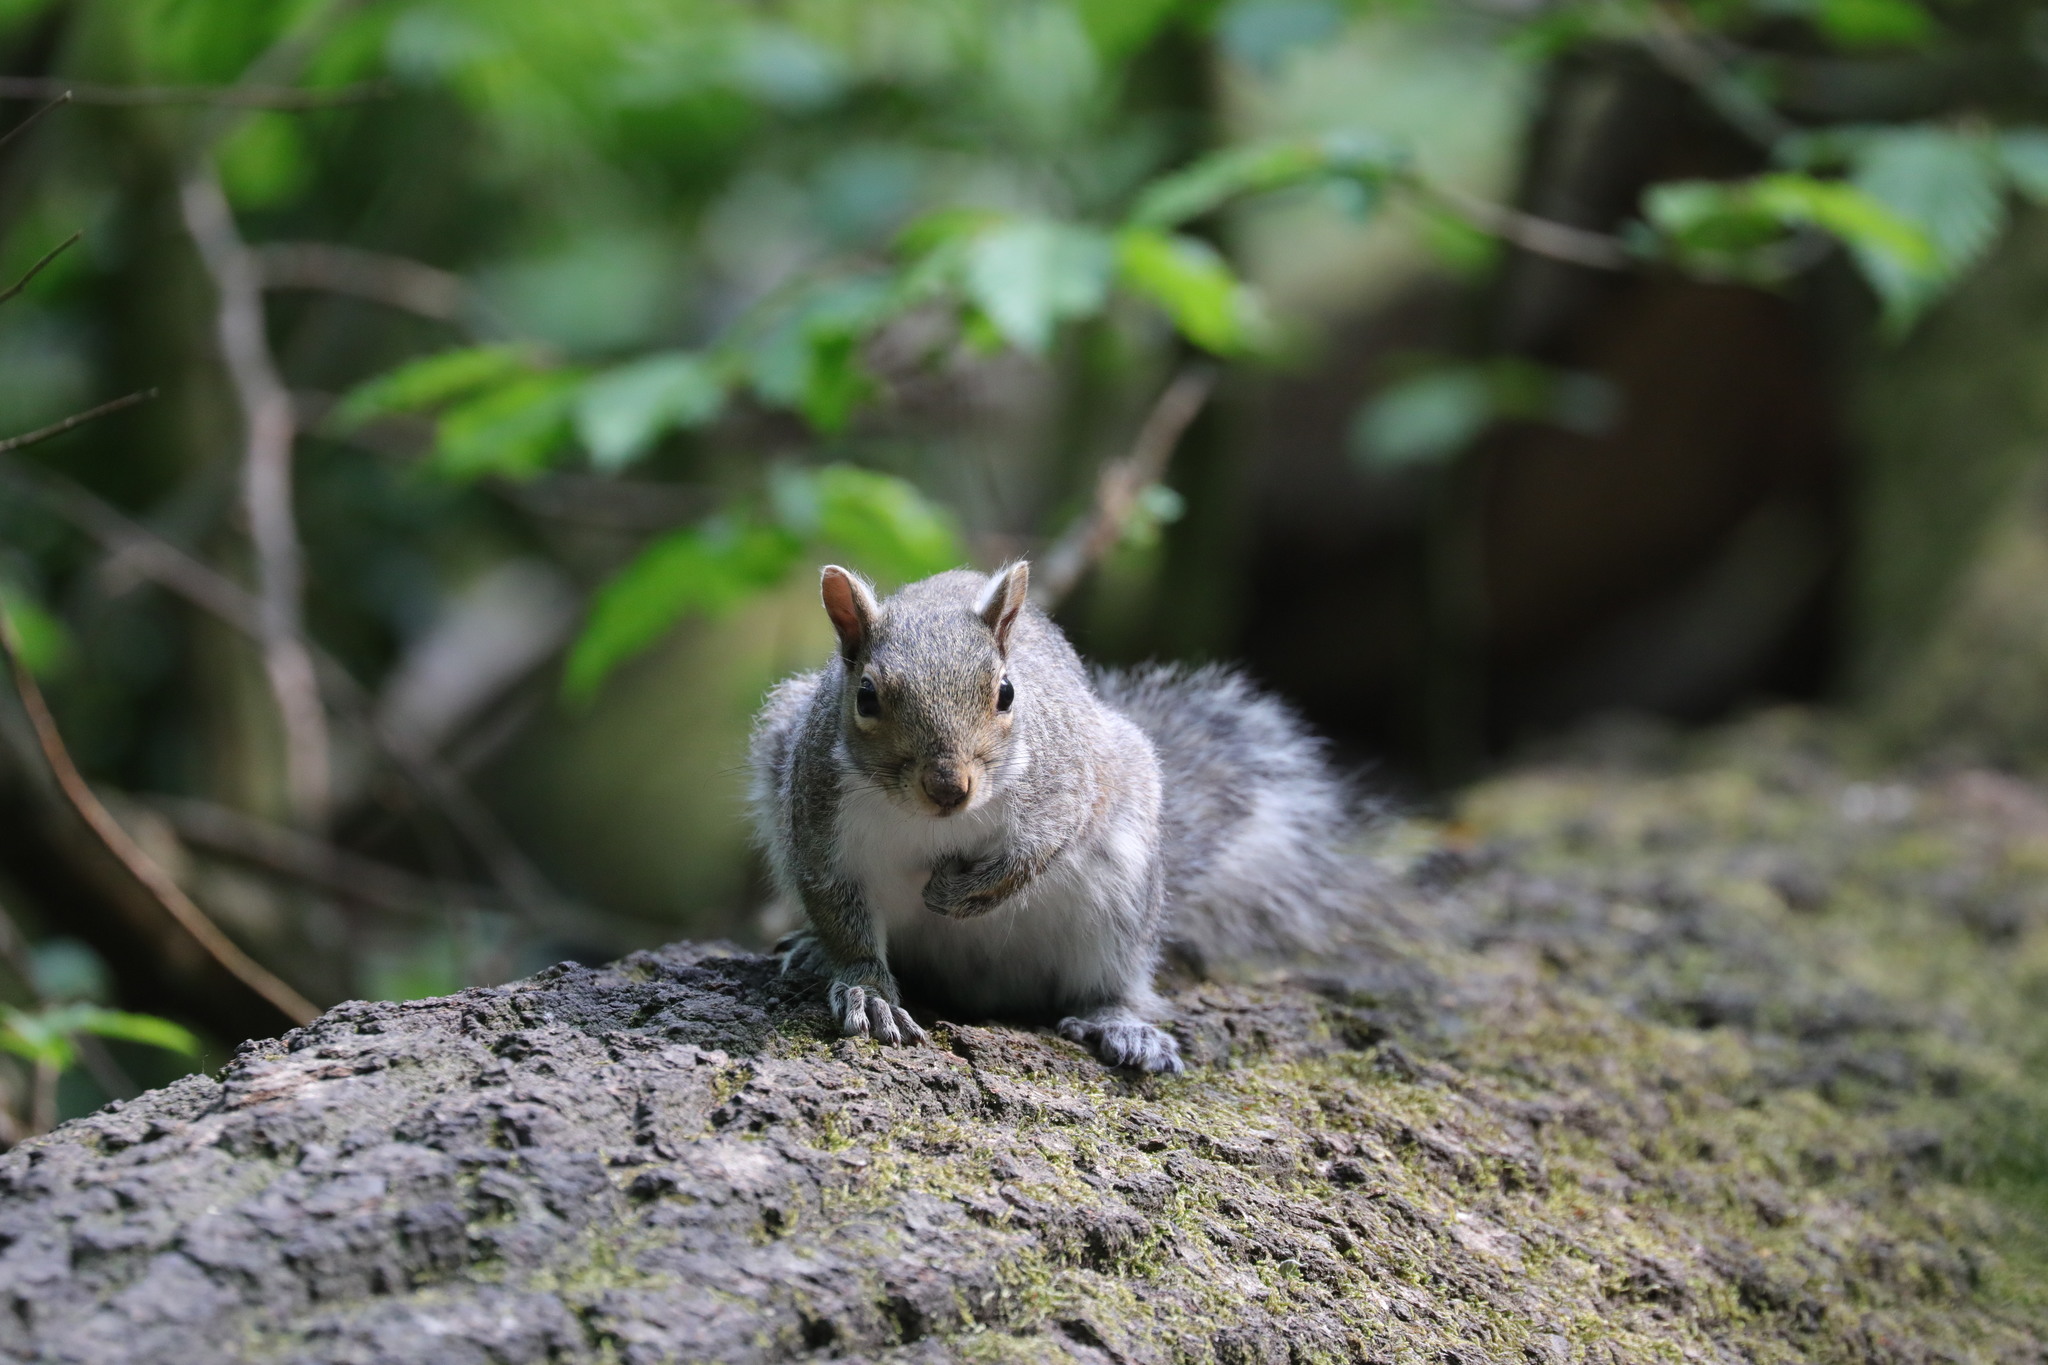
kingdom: Animalia
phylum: Chordata
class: Mammalia
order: Rodentia
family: Sciuridae
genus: Sciurus
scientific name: Sciurus carolinensis
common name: Eastern gray squirrel
